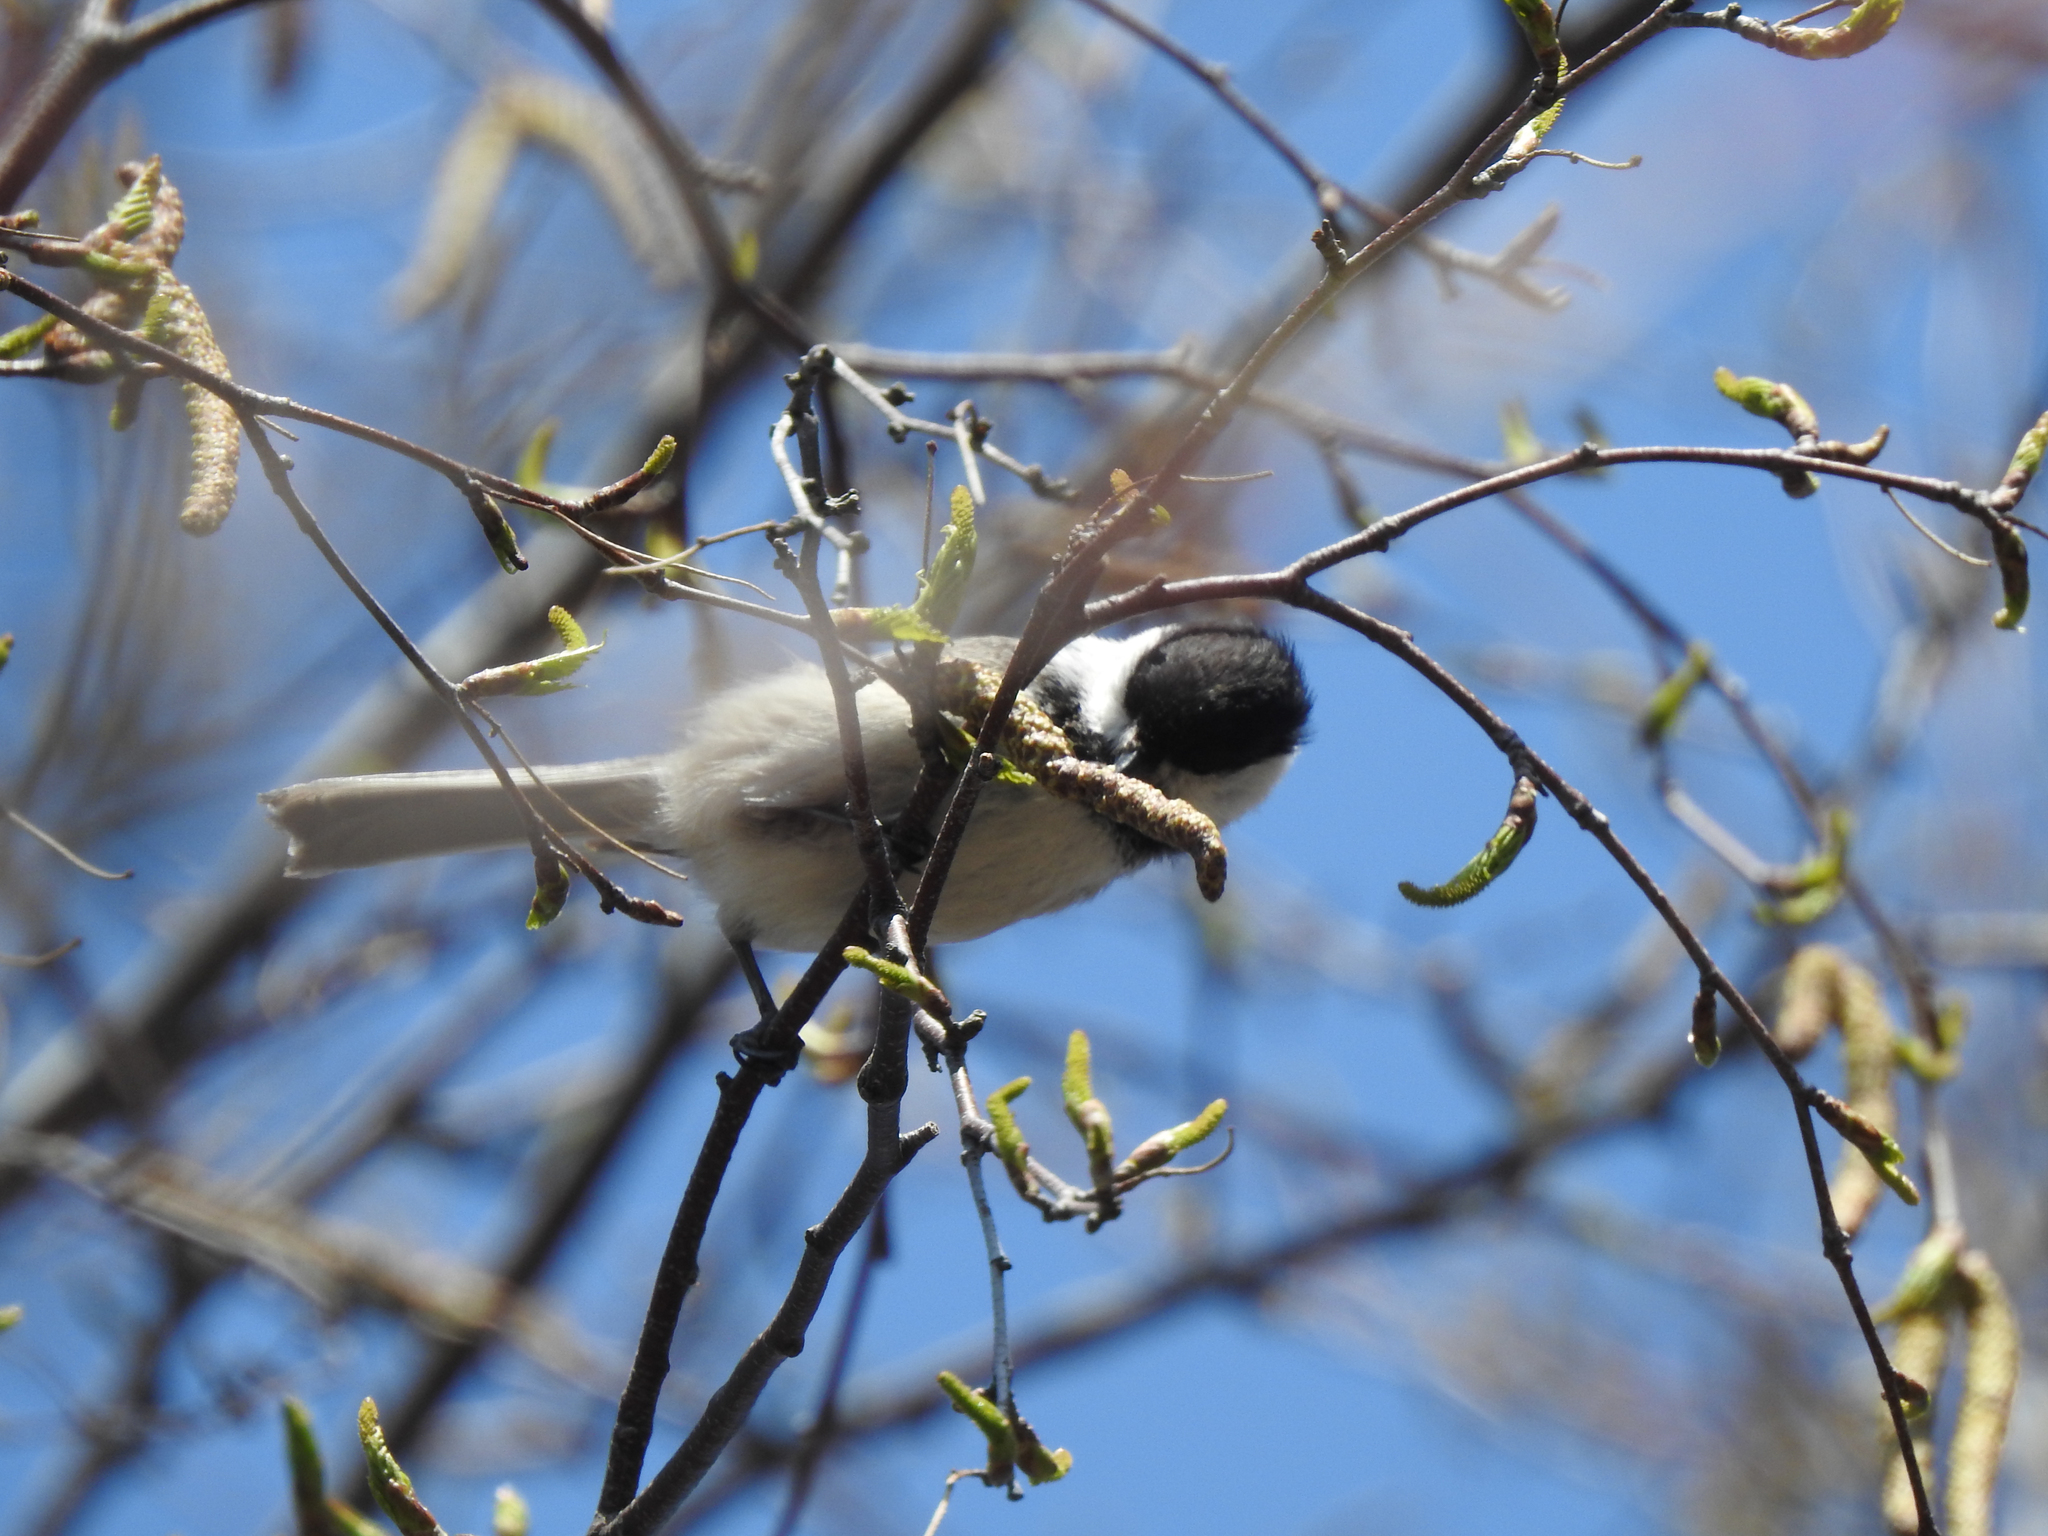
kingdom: Animalia
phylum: Chordata
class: Aves
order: Passeriformes
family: Paridae
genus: Poecile
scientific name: Poecile atricapillus
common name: Black-capped chickadee
